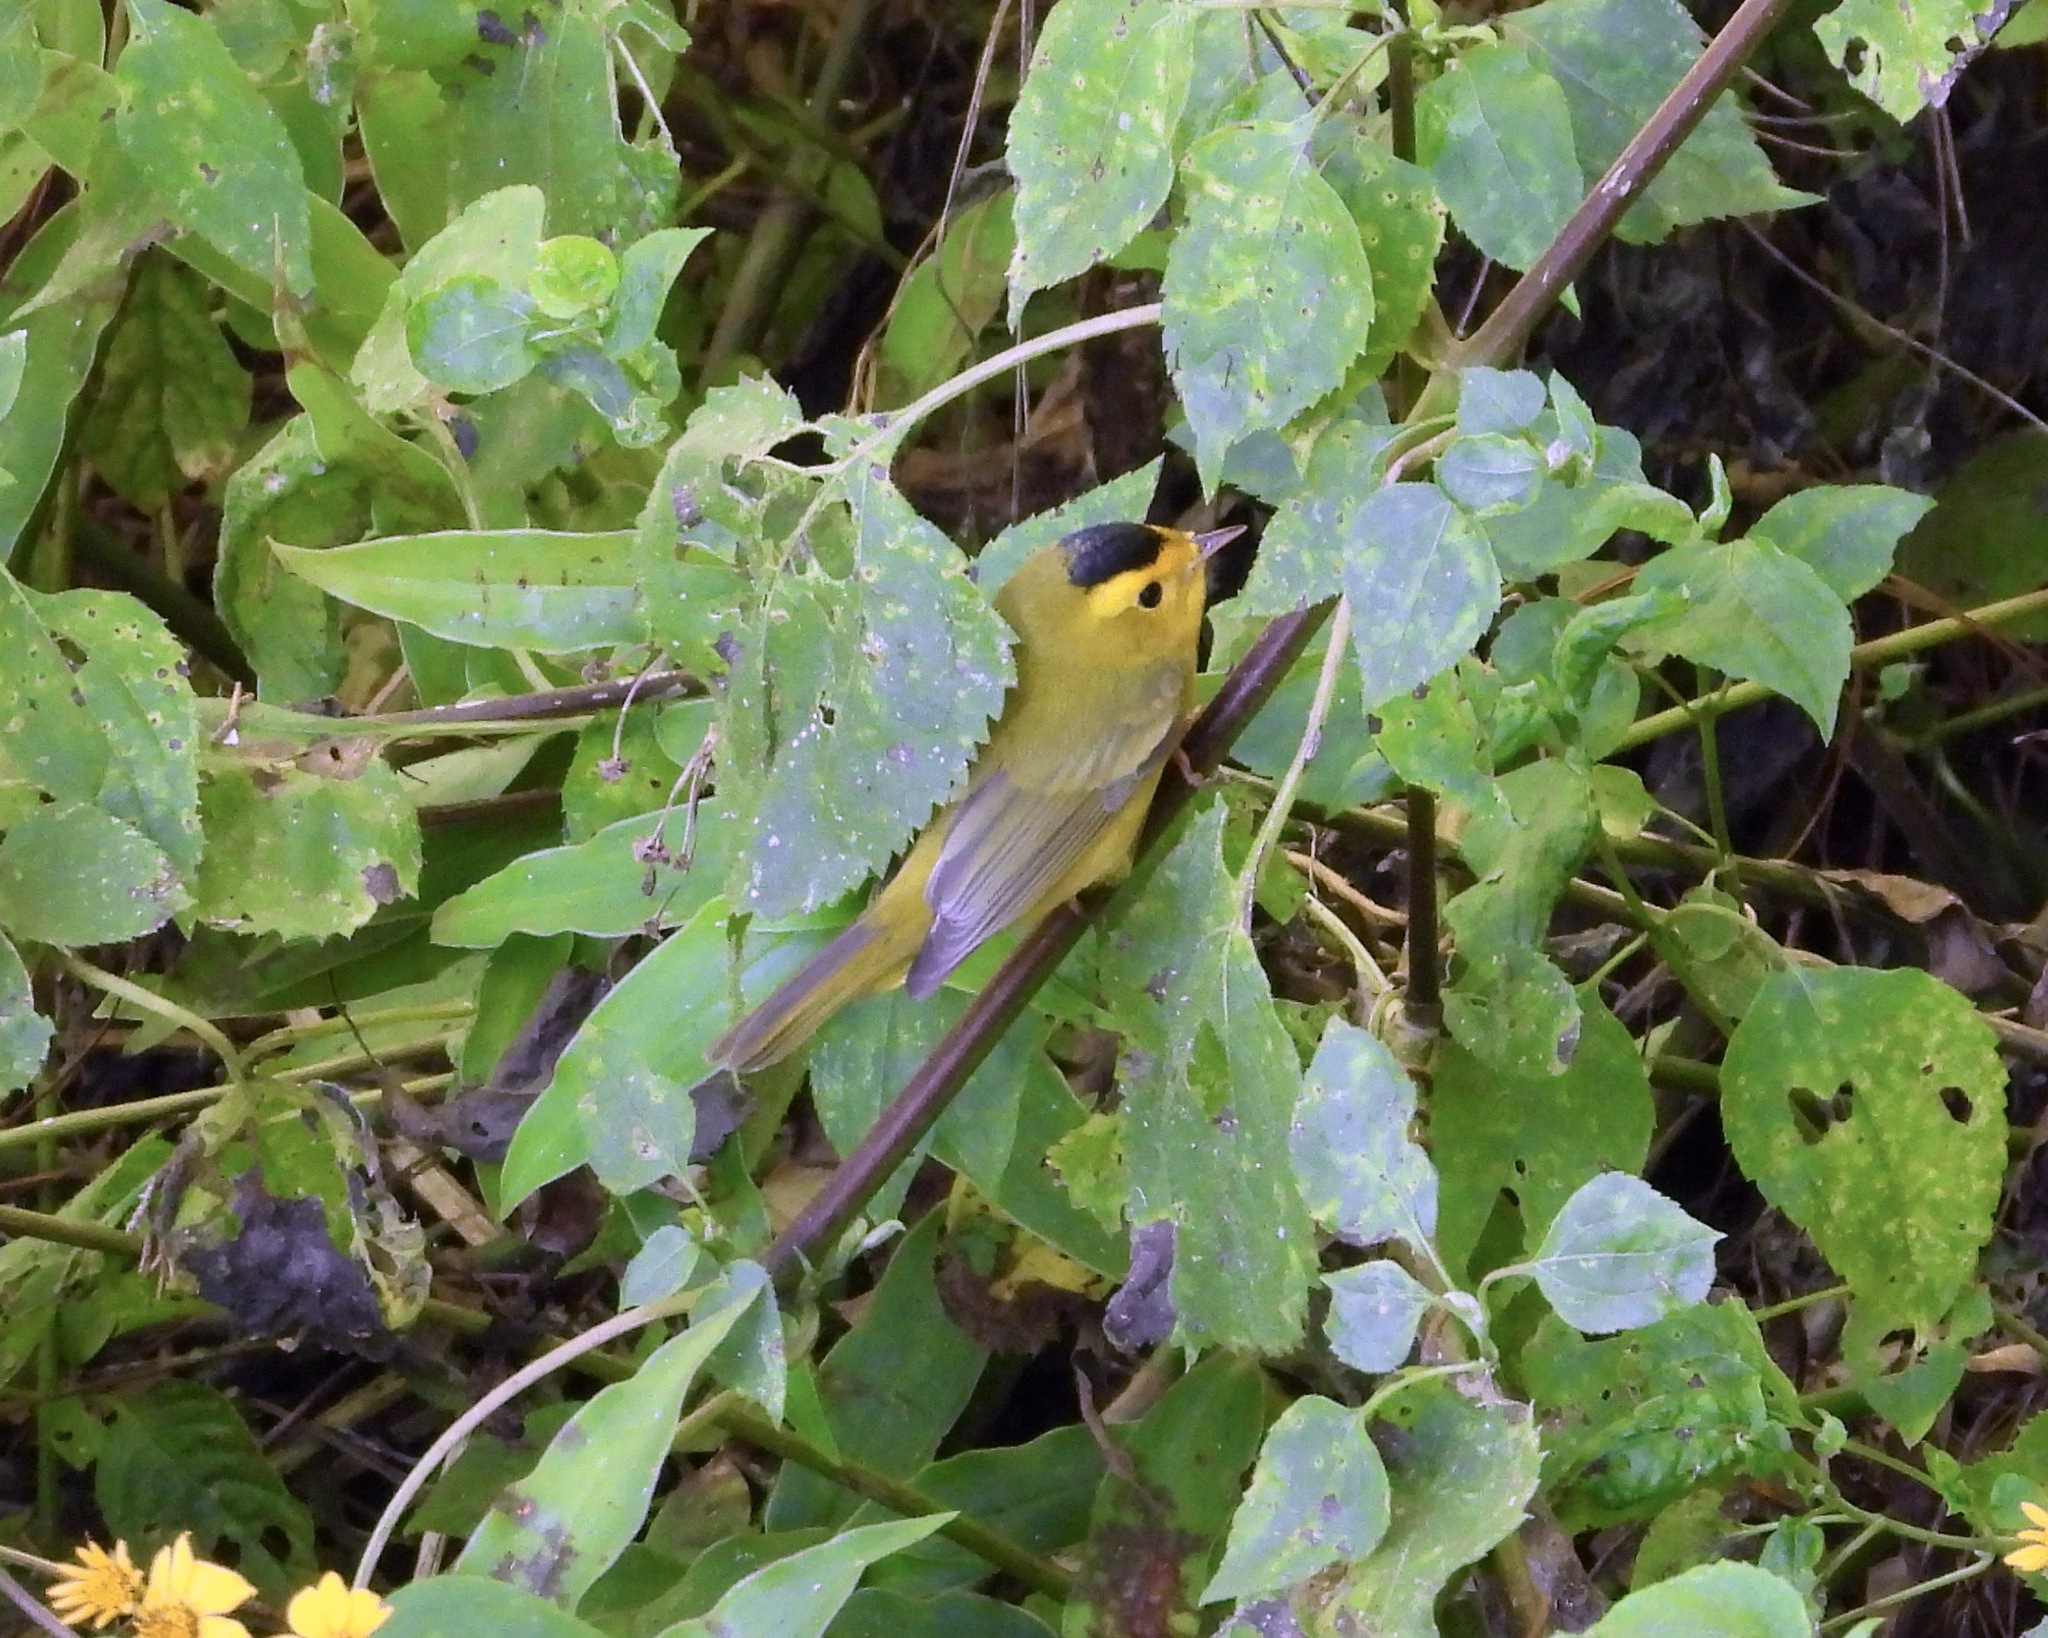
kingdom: Animalia
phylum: Chordata
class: Aves
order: Passeriformes
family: Parulidae
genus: Cardellina
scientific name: Cardellina pusilla
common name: Wilson's warbler
